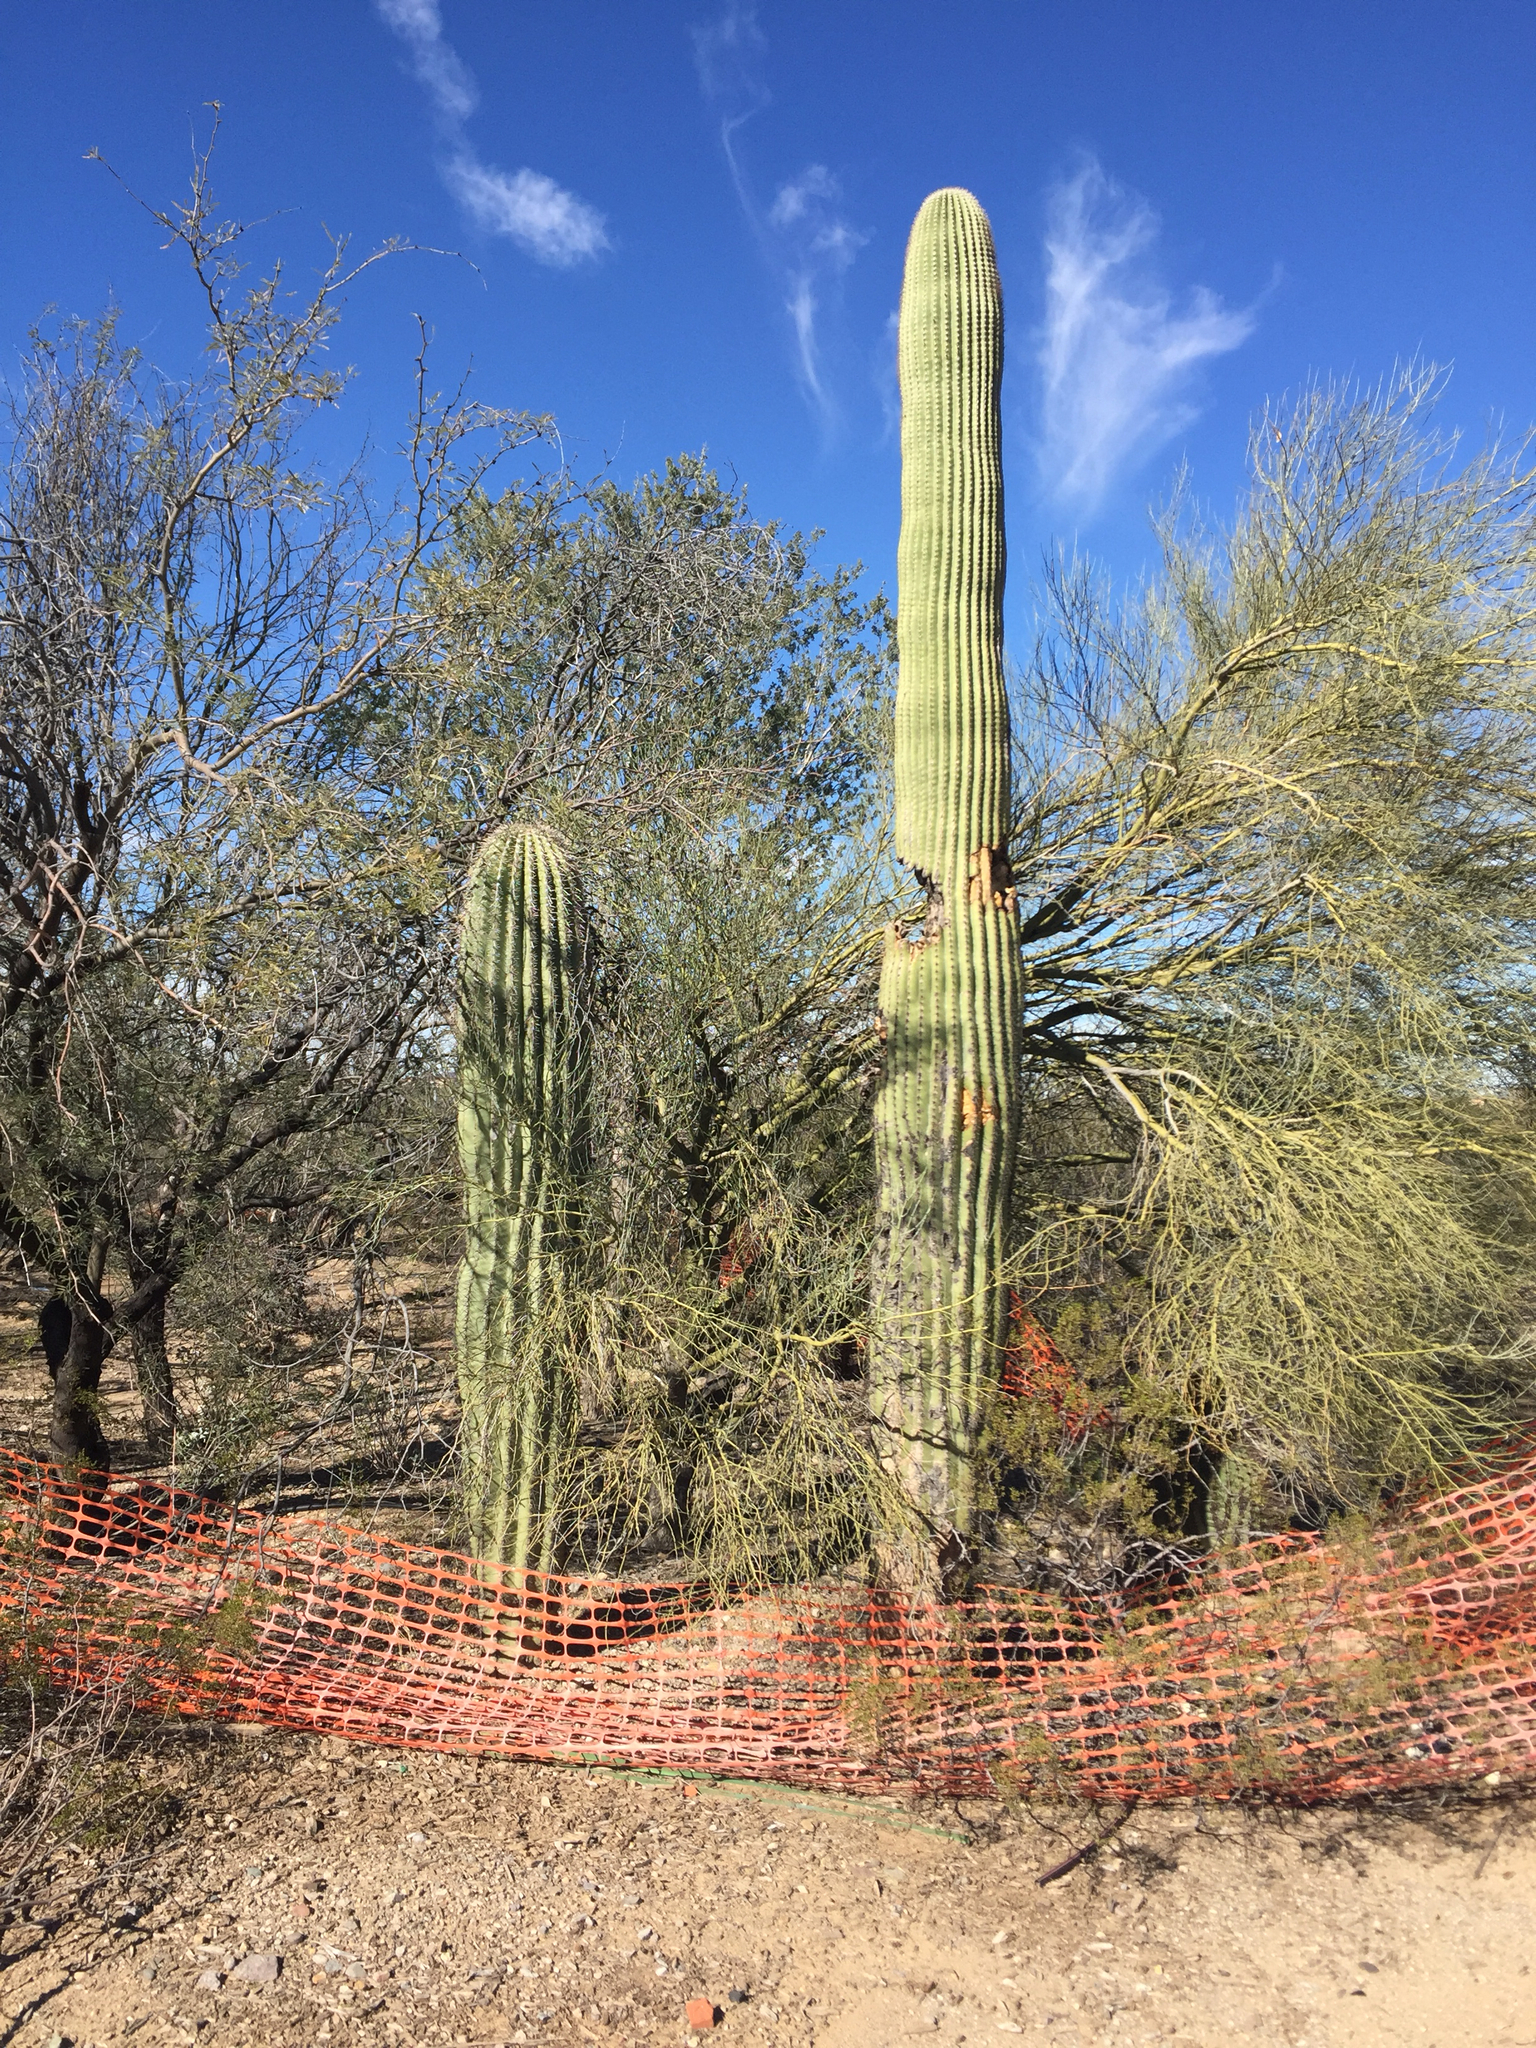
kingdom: Plantae
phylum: Tracheophyta
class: Magnoliopsida
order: Caryophyllales
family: Cactaceae
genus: Carnegiea
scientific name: Carnegiea gigantea
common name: Saguaro
